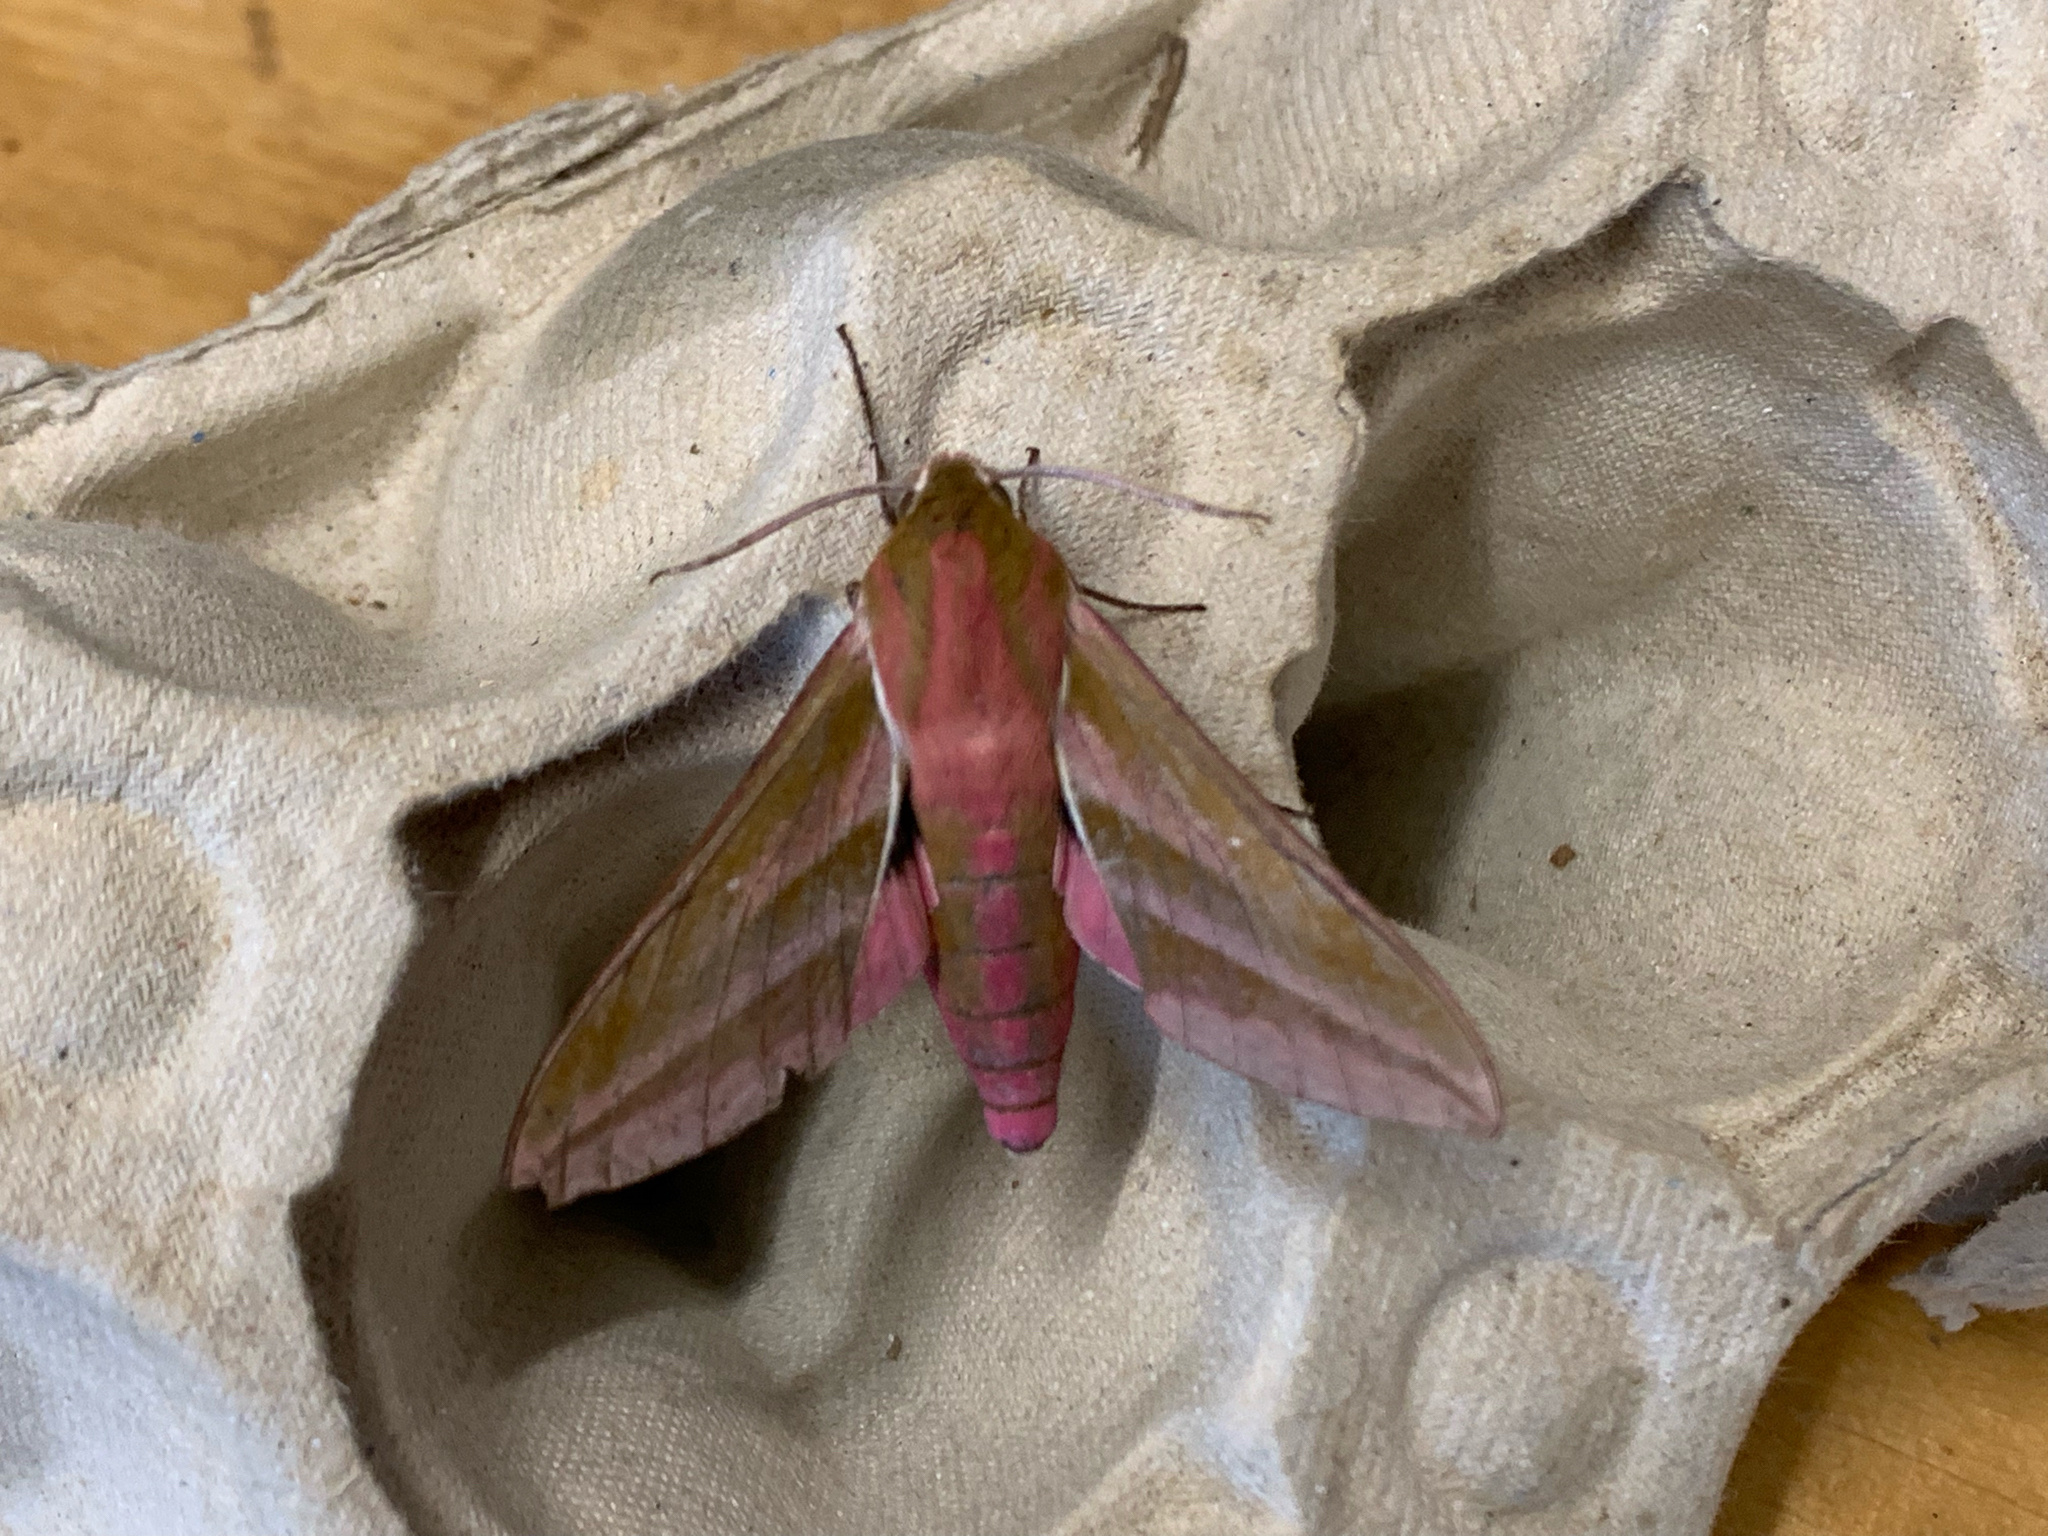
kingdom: Animalia
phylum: Arthropoda
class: Insecta
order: Lepidoptera
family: Sphingidae
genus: Deilephila
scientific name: Deilephila elpenor
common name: Elephant hawk-moth
